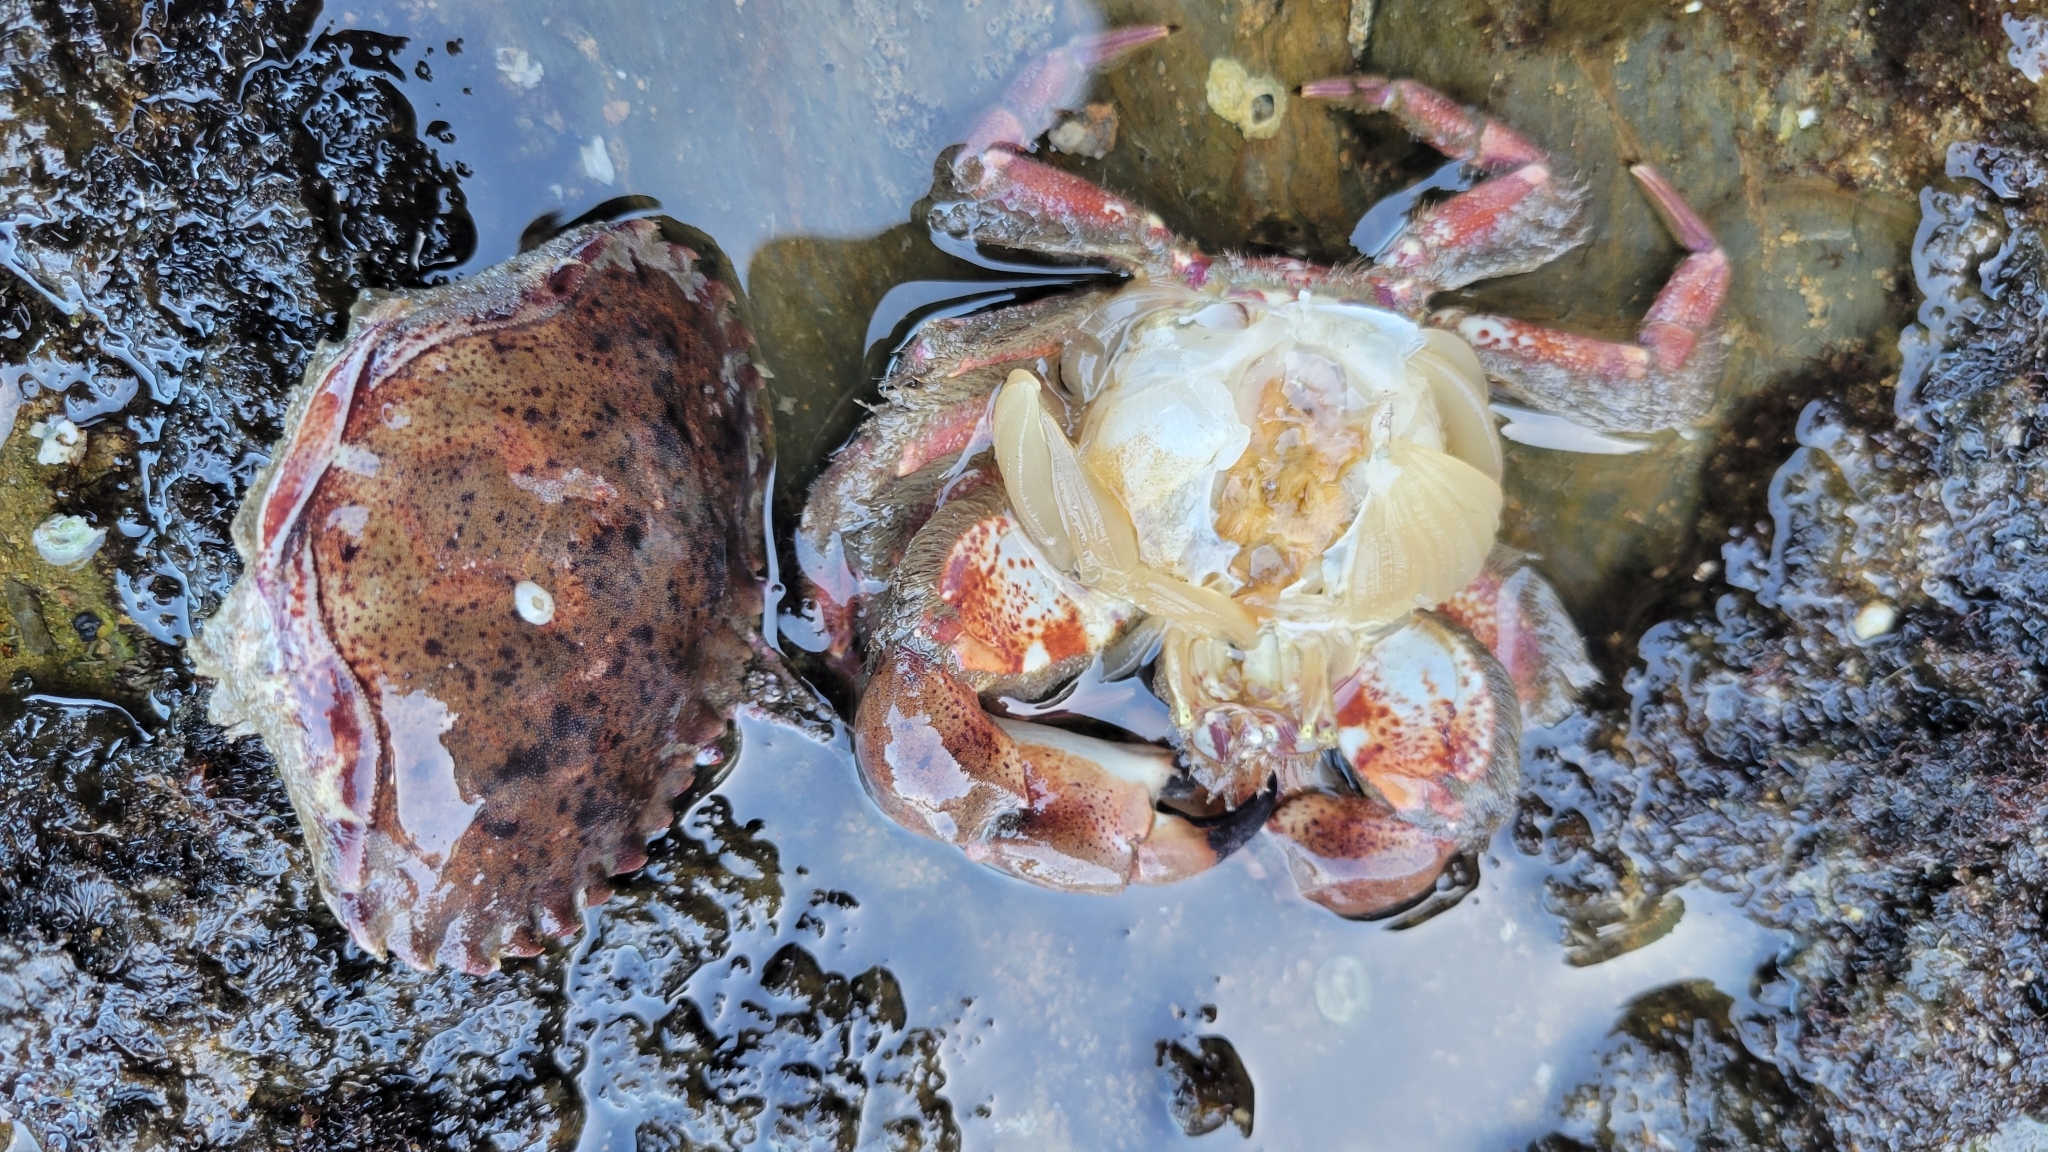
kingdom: Animalia
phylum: Arthropoda
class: Malacostraca
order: Decapoda
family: Cancridae
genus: Romaleon
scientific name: Romaleon antennarium
